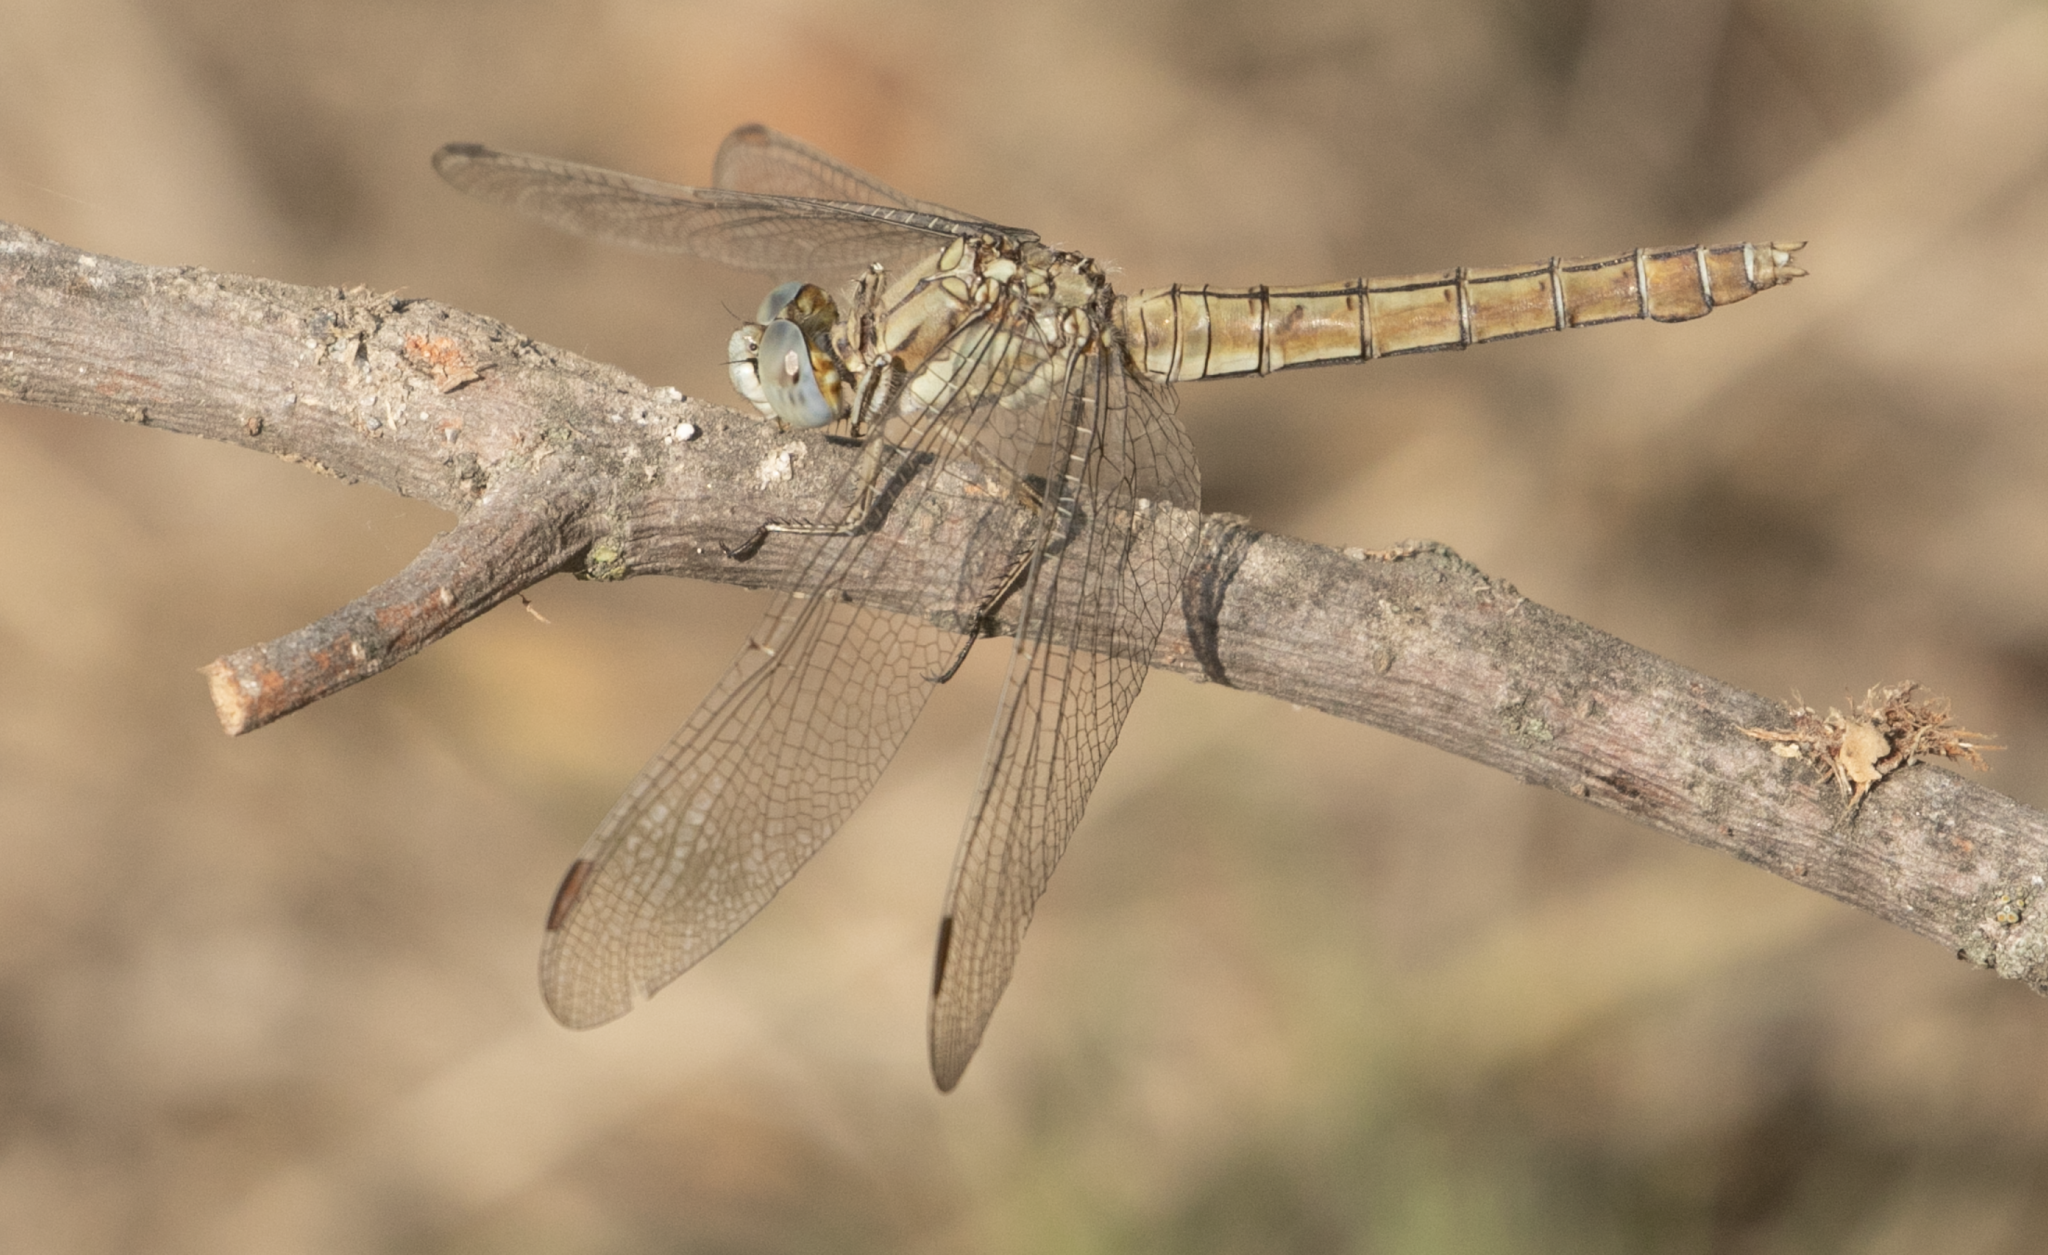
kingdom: Animalia
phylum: Arthropoda
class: Insecta
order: Odonata
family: Libellulidae
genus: Orthetrum
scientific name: Orthetrum brunneum
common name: Southern skimmer
